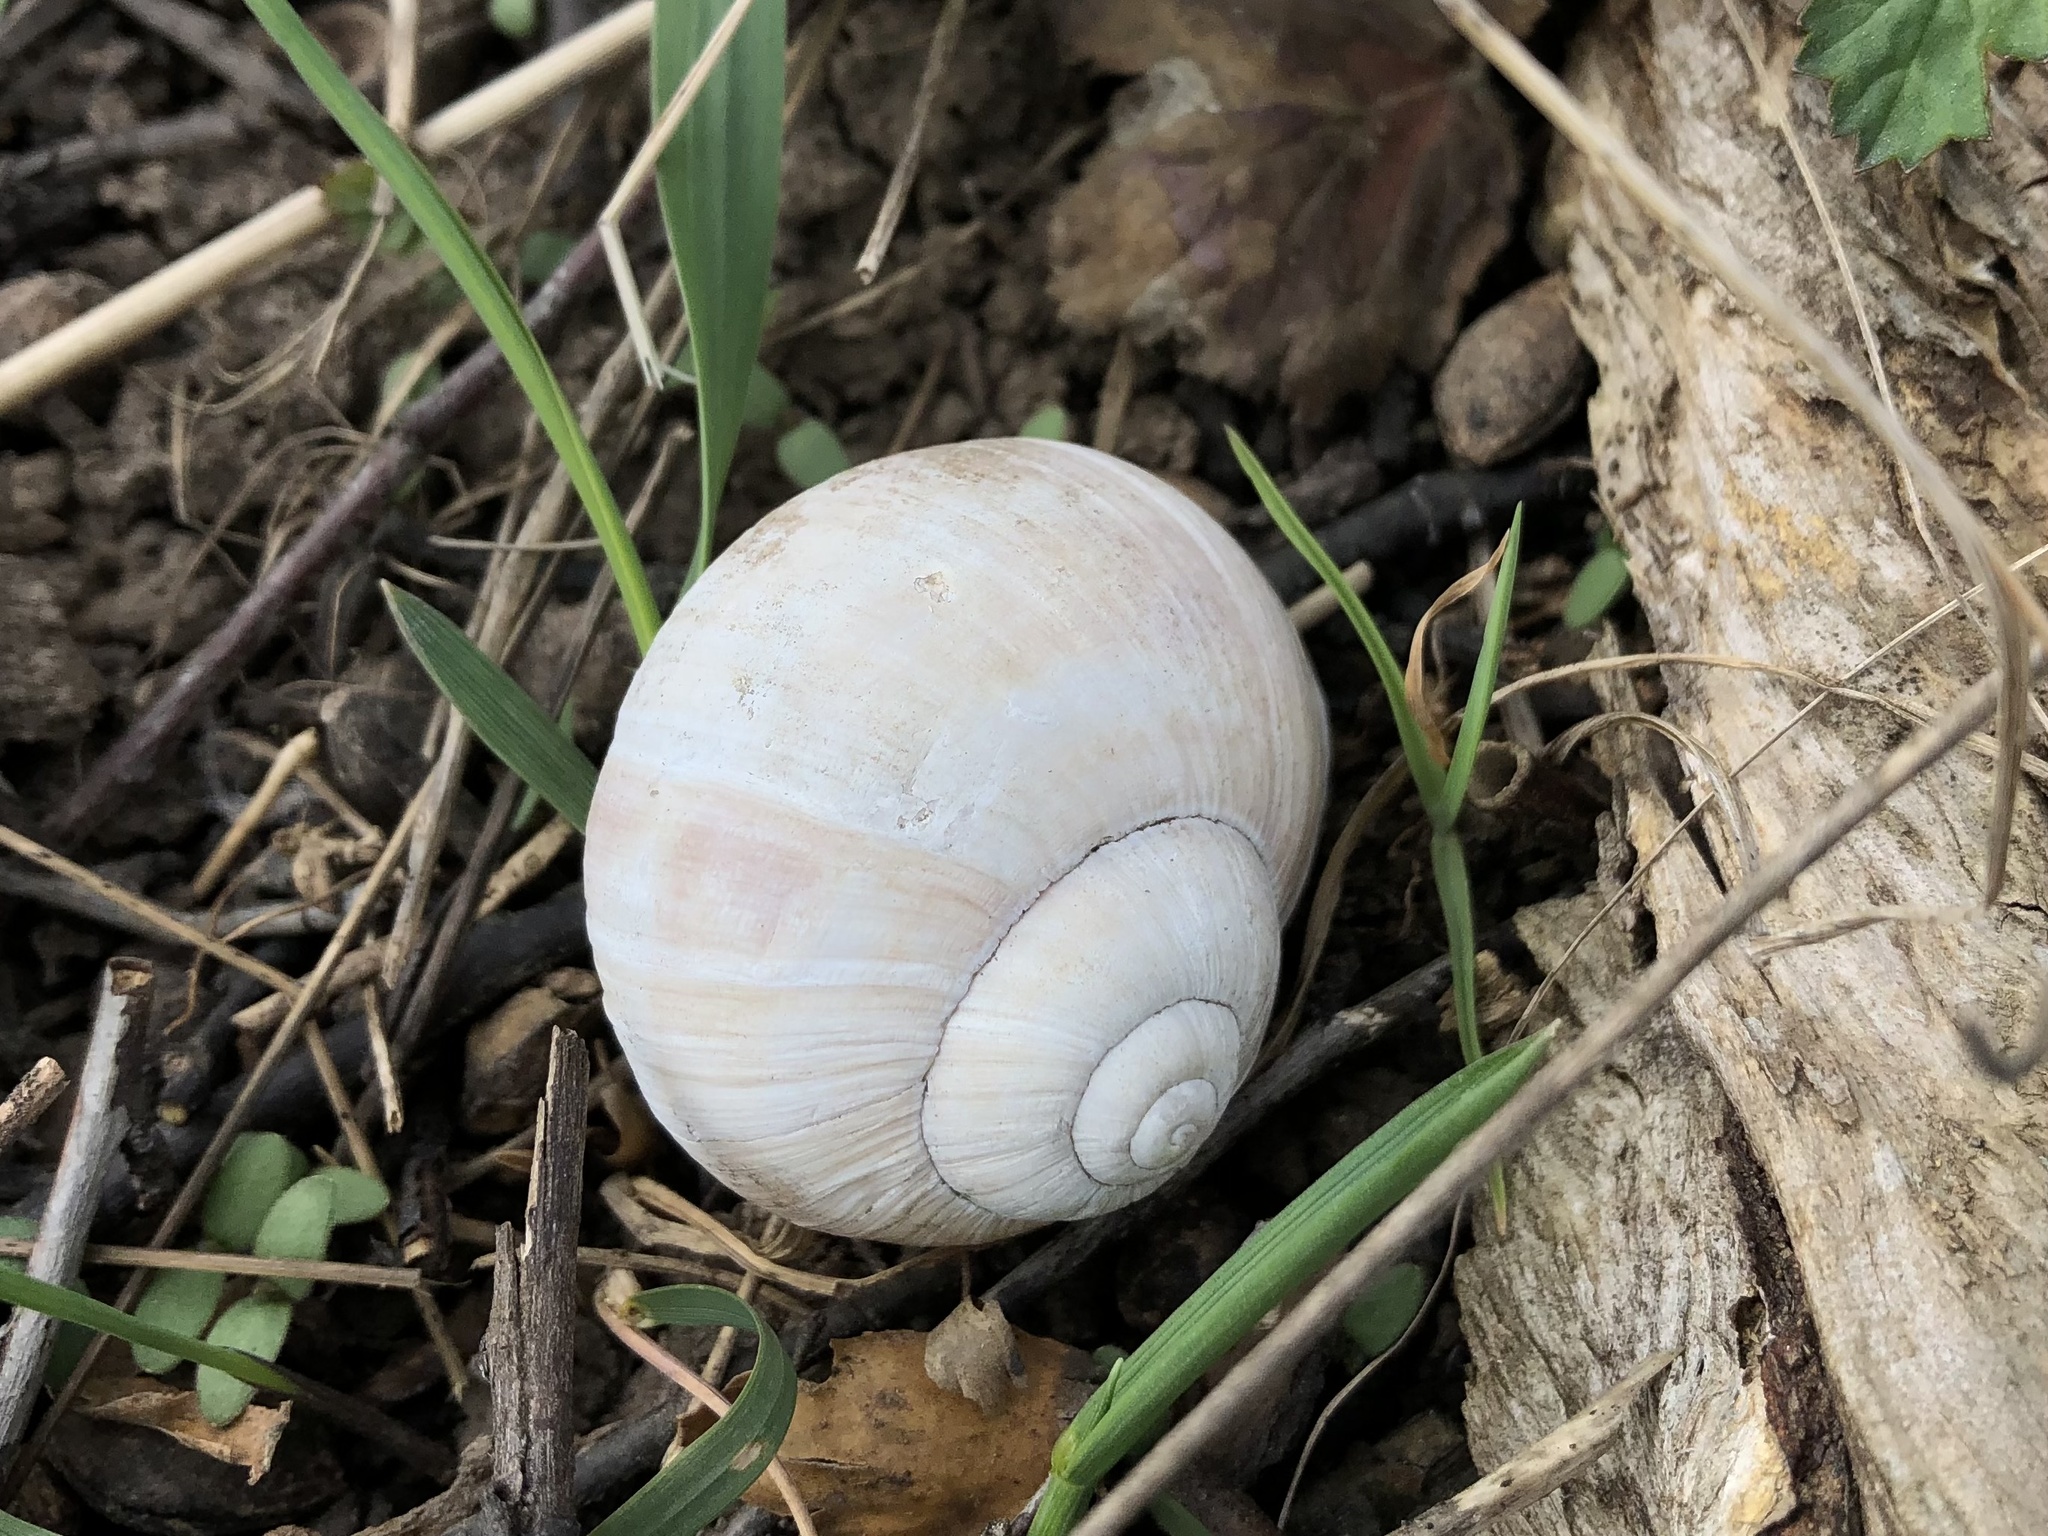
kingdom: Animalia
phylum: Mollusca
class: Gastropoda
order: Stylommatophora
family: Helicidae
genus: Helix
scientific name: Helix pomatia
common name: Roman snail
